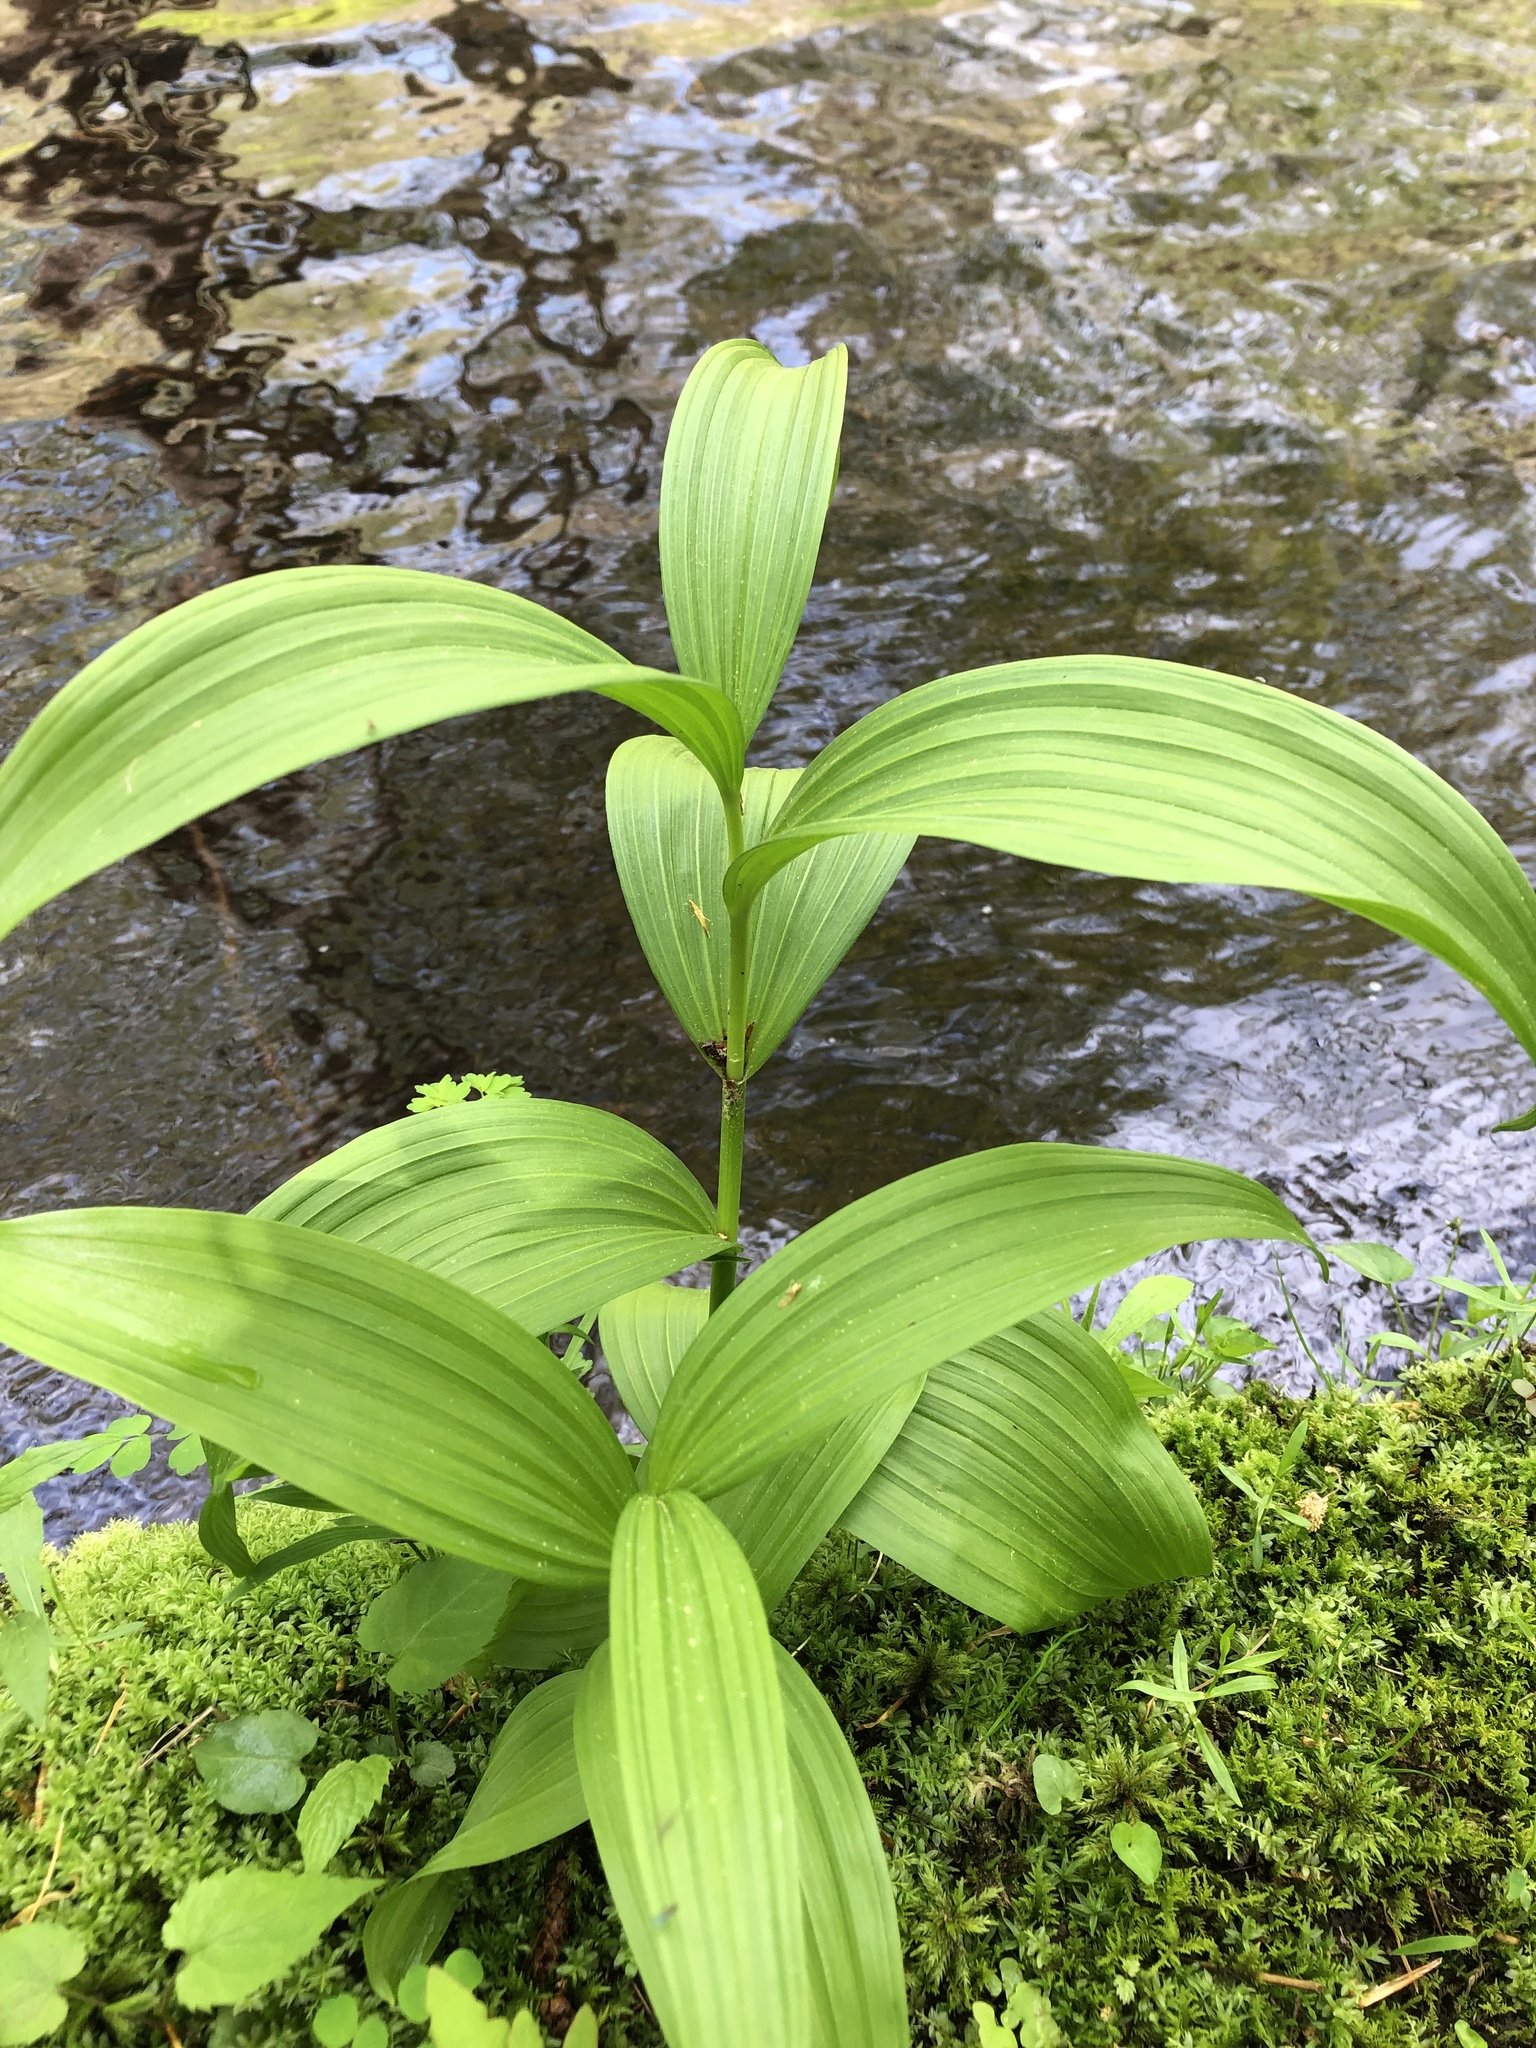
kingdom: Plantae
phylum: Tracheophyta
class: Liliopsida
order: Liliales
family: Melanthiaceae
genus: Veratrum
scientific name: Veratrum viride
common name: American false hellebore
